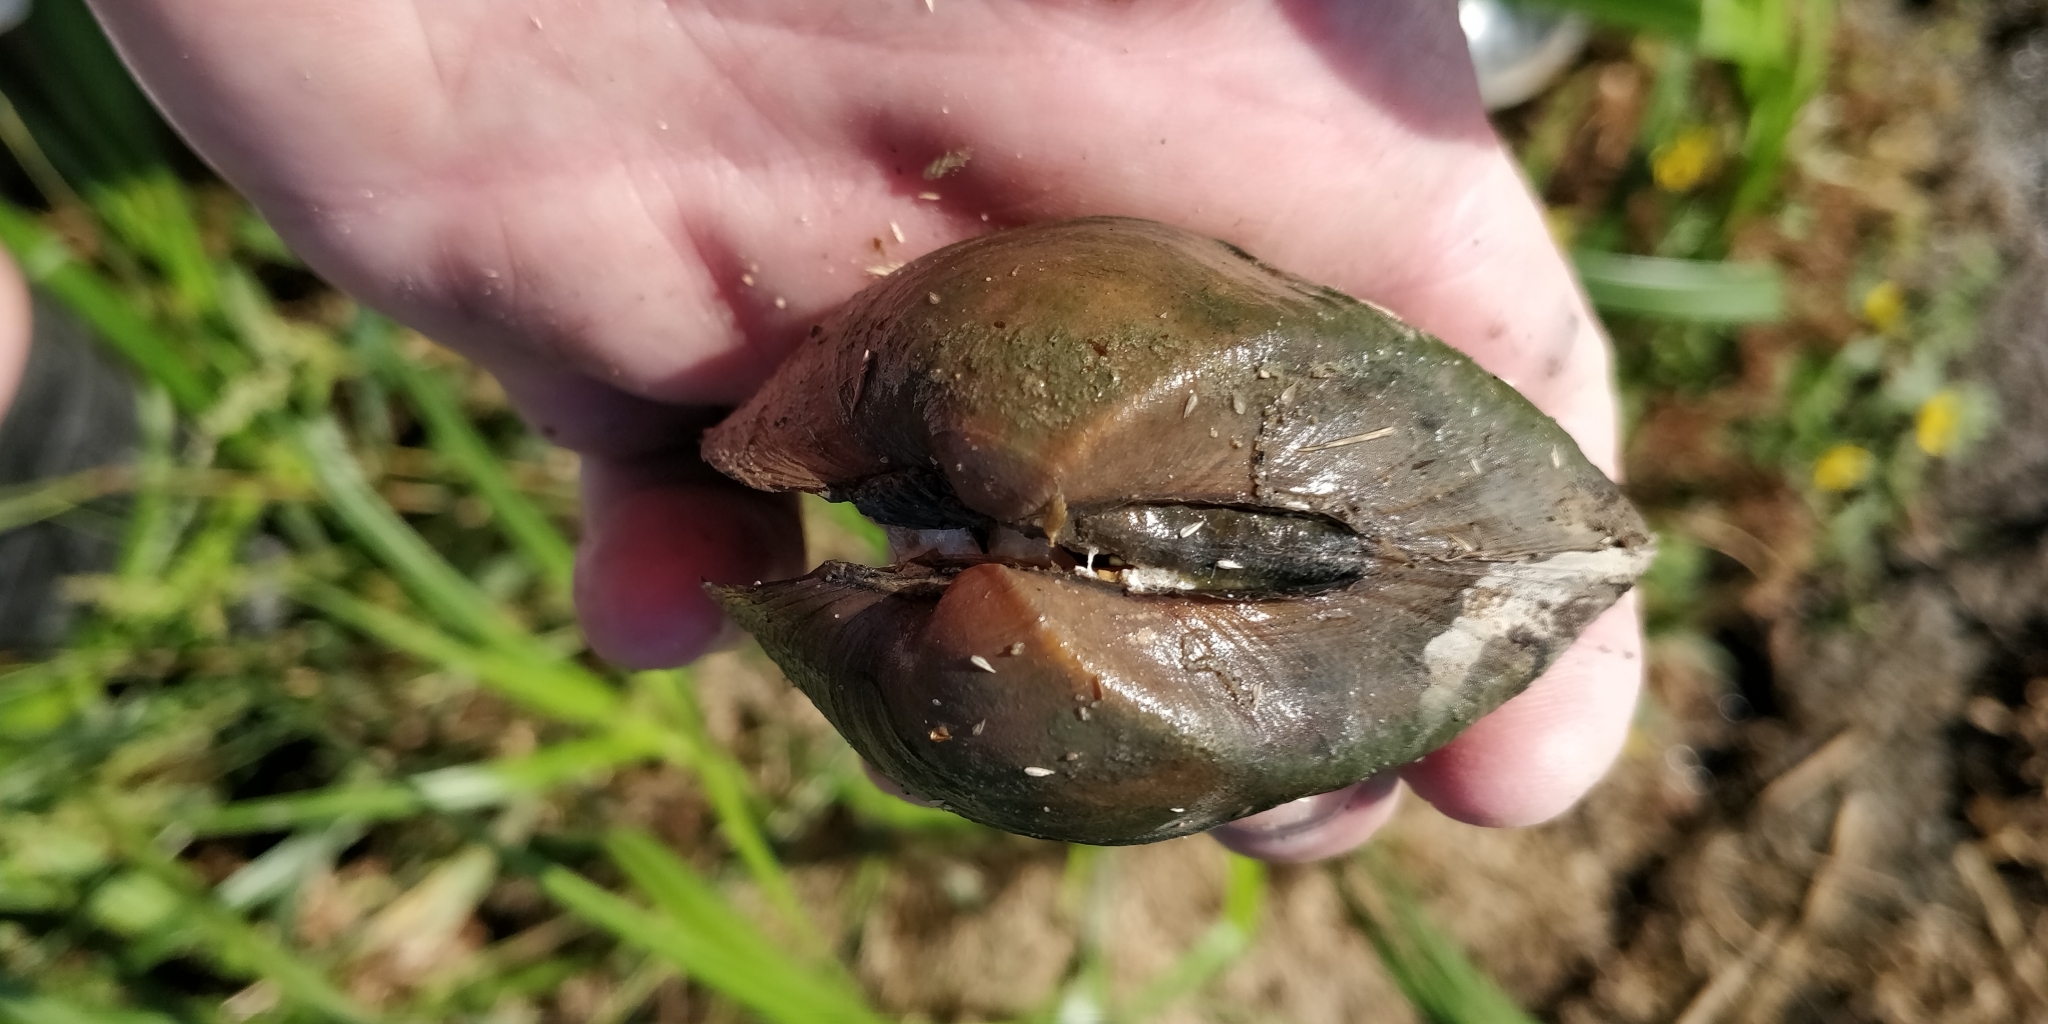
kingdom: Animalia
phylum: Mollusca
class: Bivalvia
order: Unionida
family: Unionidae
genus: Truncilla
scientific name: Truncilla truncata
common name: Deertoe
